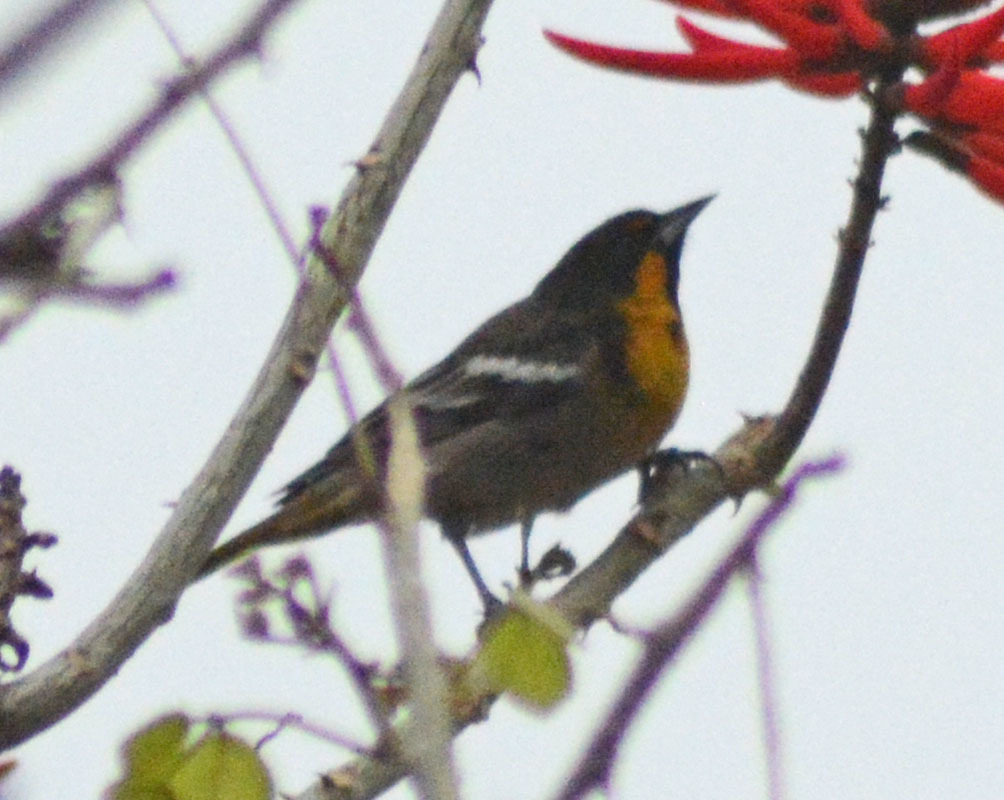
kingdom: Animalia
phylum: Chordata
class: Aves
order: Passeriformes
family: Icteridae
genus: Icterus
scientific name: Icterus abeillei
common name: Black-backed oriole
